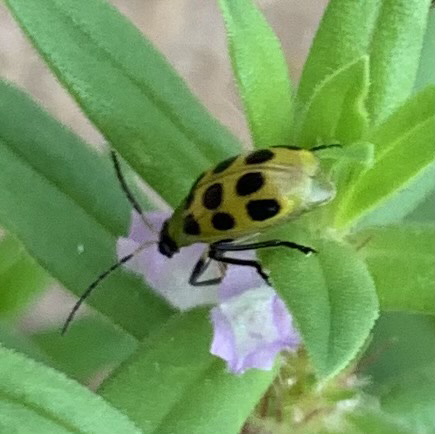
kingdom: Animalia
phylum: Arthropoda
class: Insecta
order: Coleoptera
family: Chrysomelidae
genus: Diabrotica
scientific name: Diabrotica undecimpunctata
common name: Spotted cucumber beetle
